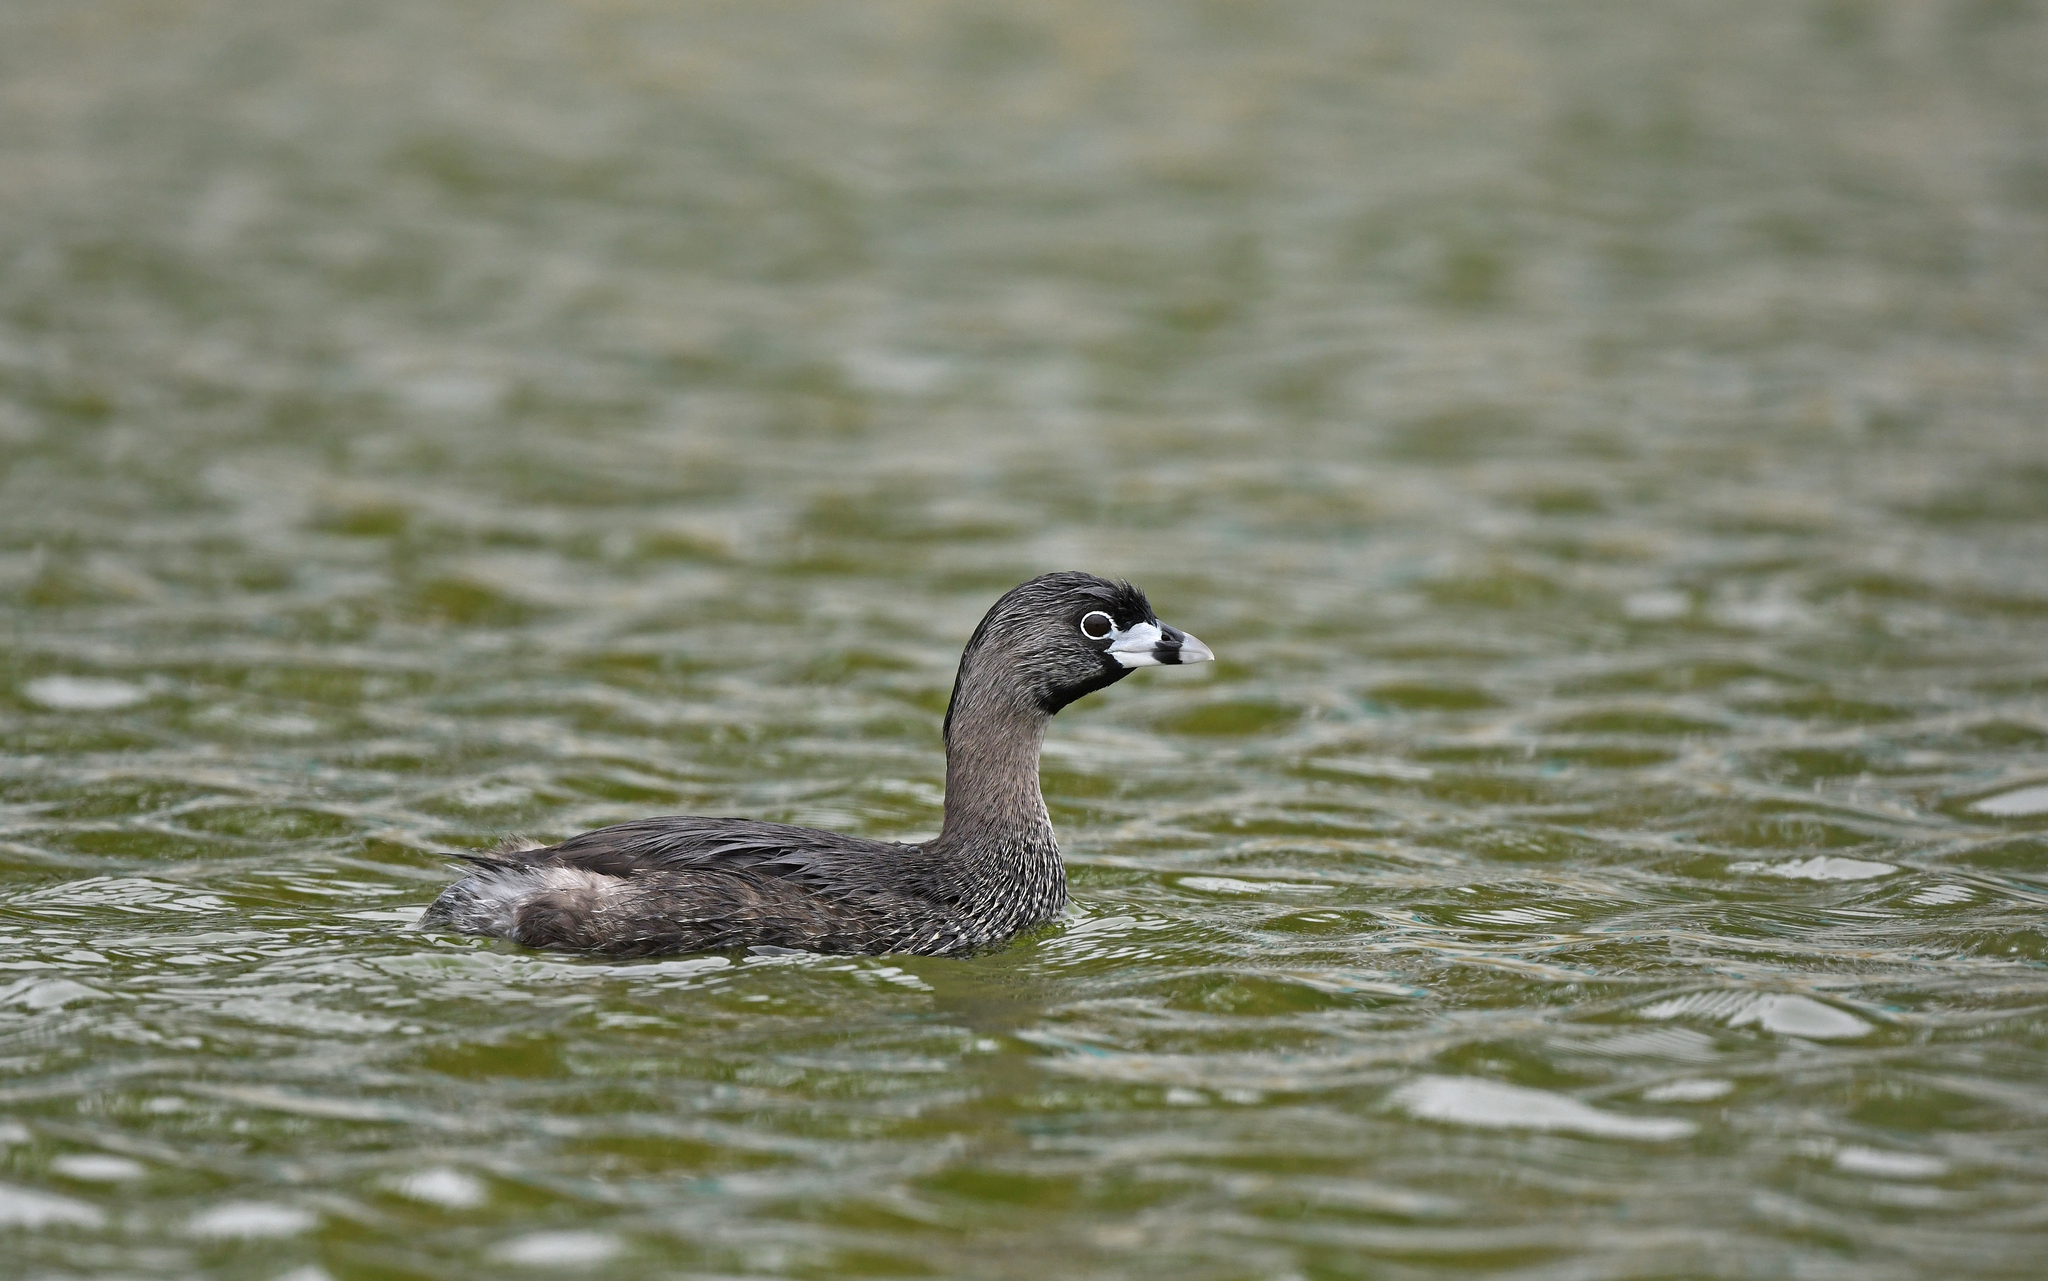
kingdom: Animalia
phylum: Chordata
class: Aves
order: Podicipediformes
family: Podicipedidae
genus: Podilymbus
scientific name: Podilymbus podiceps
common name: Pied-billed grebe
